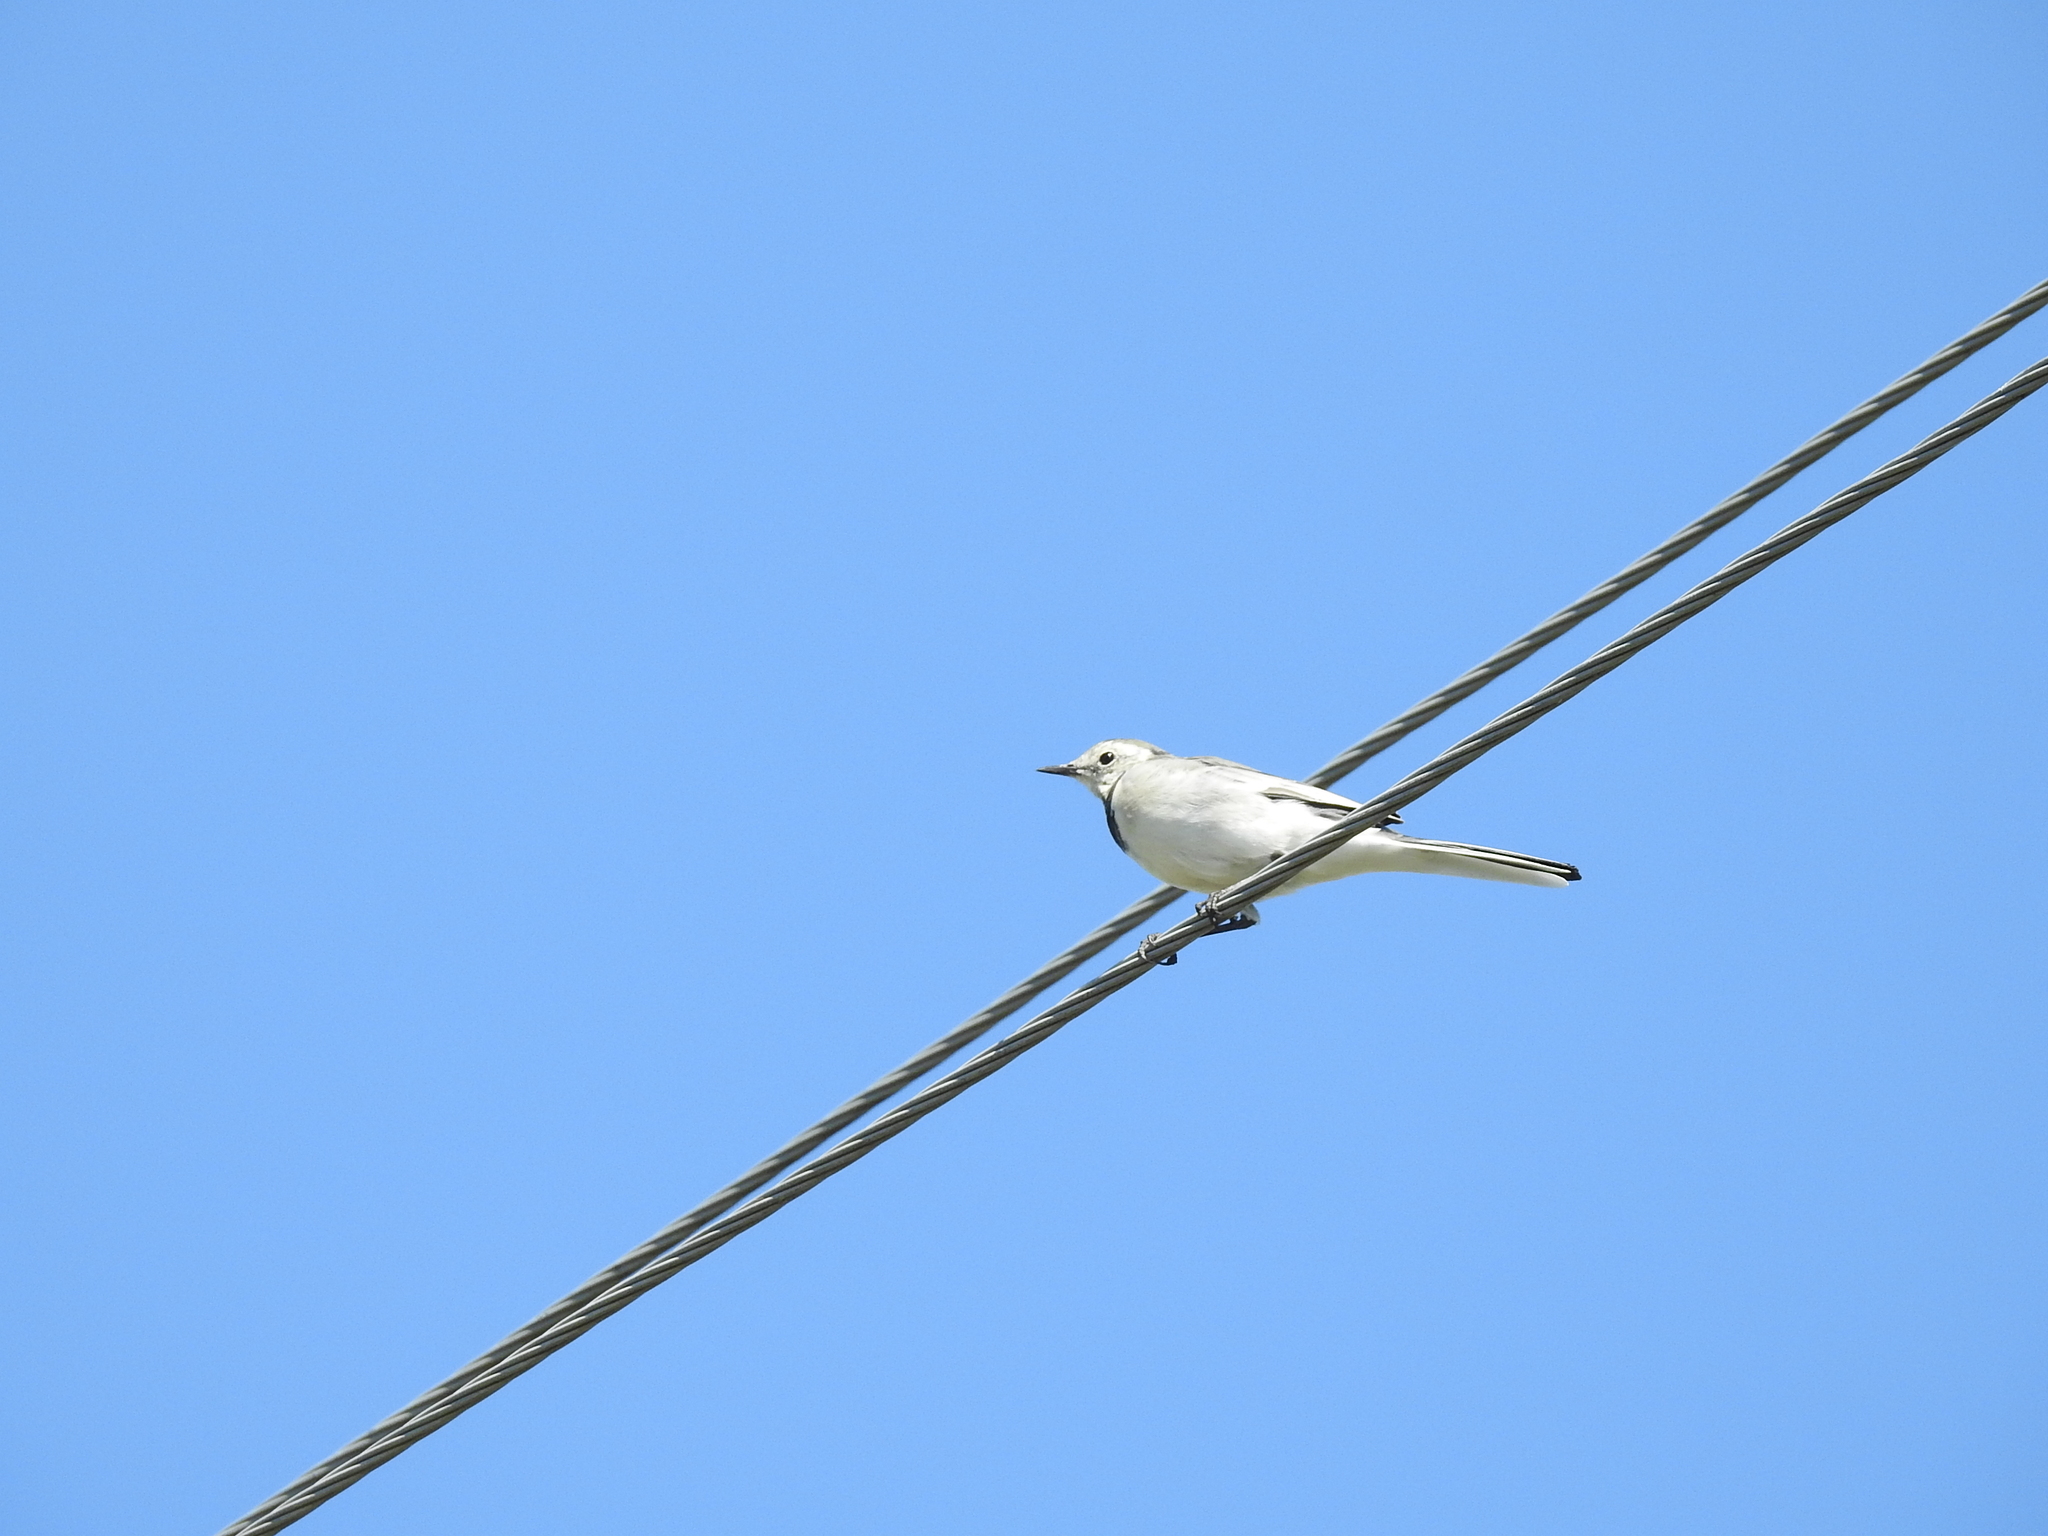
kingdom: Animalia
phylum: Chordata
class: Aves
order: Passeriformes
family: Motacillidae
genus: Motacilla
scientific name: Motacilla alba
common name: White wagtail
